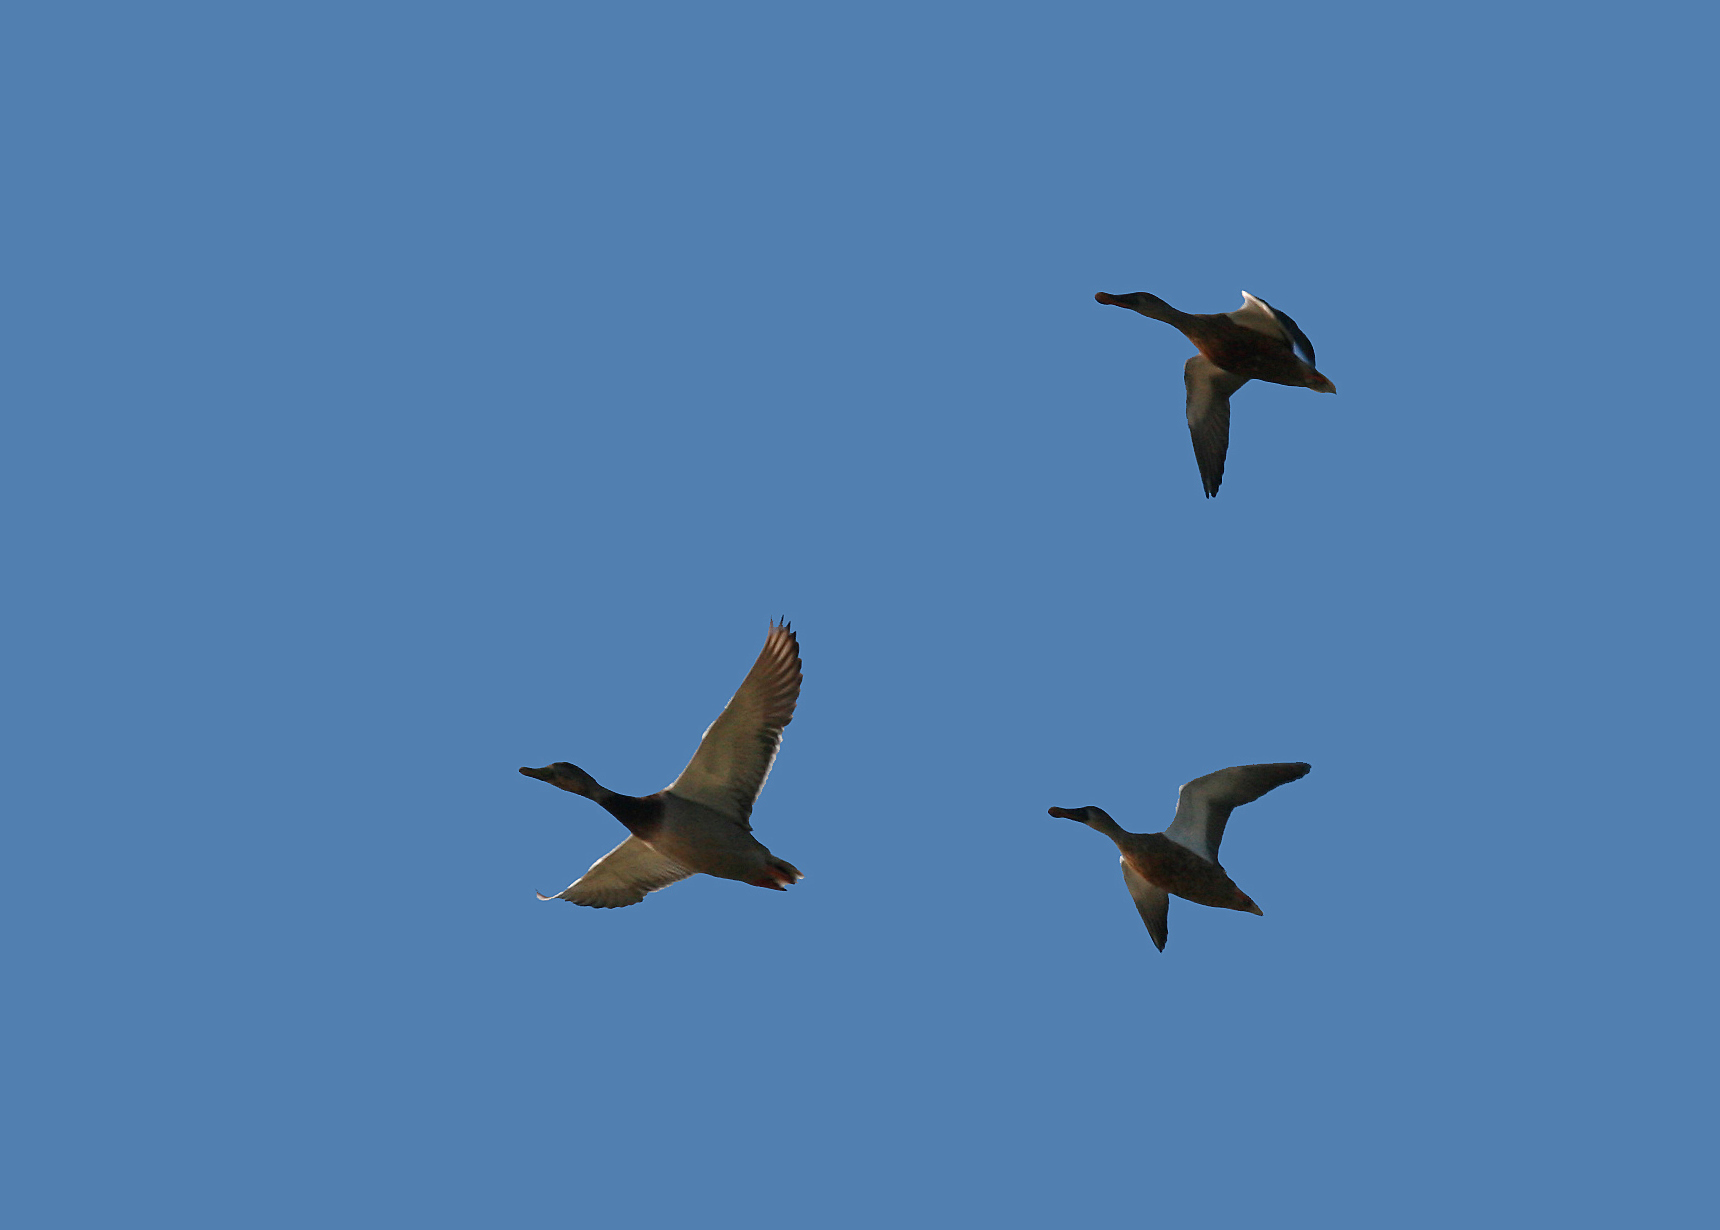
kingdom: Animalia
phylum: Chordata
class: Aves
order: Anseriformes
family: Anatidae
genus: Spatula
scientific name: Spatula clypeata
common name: Northern shoveler
